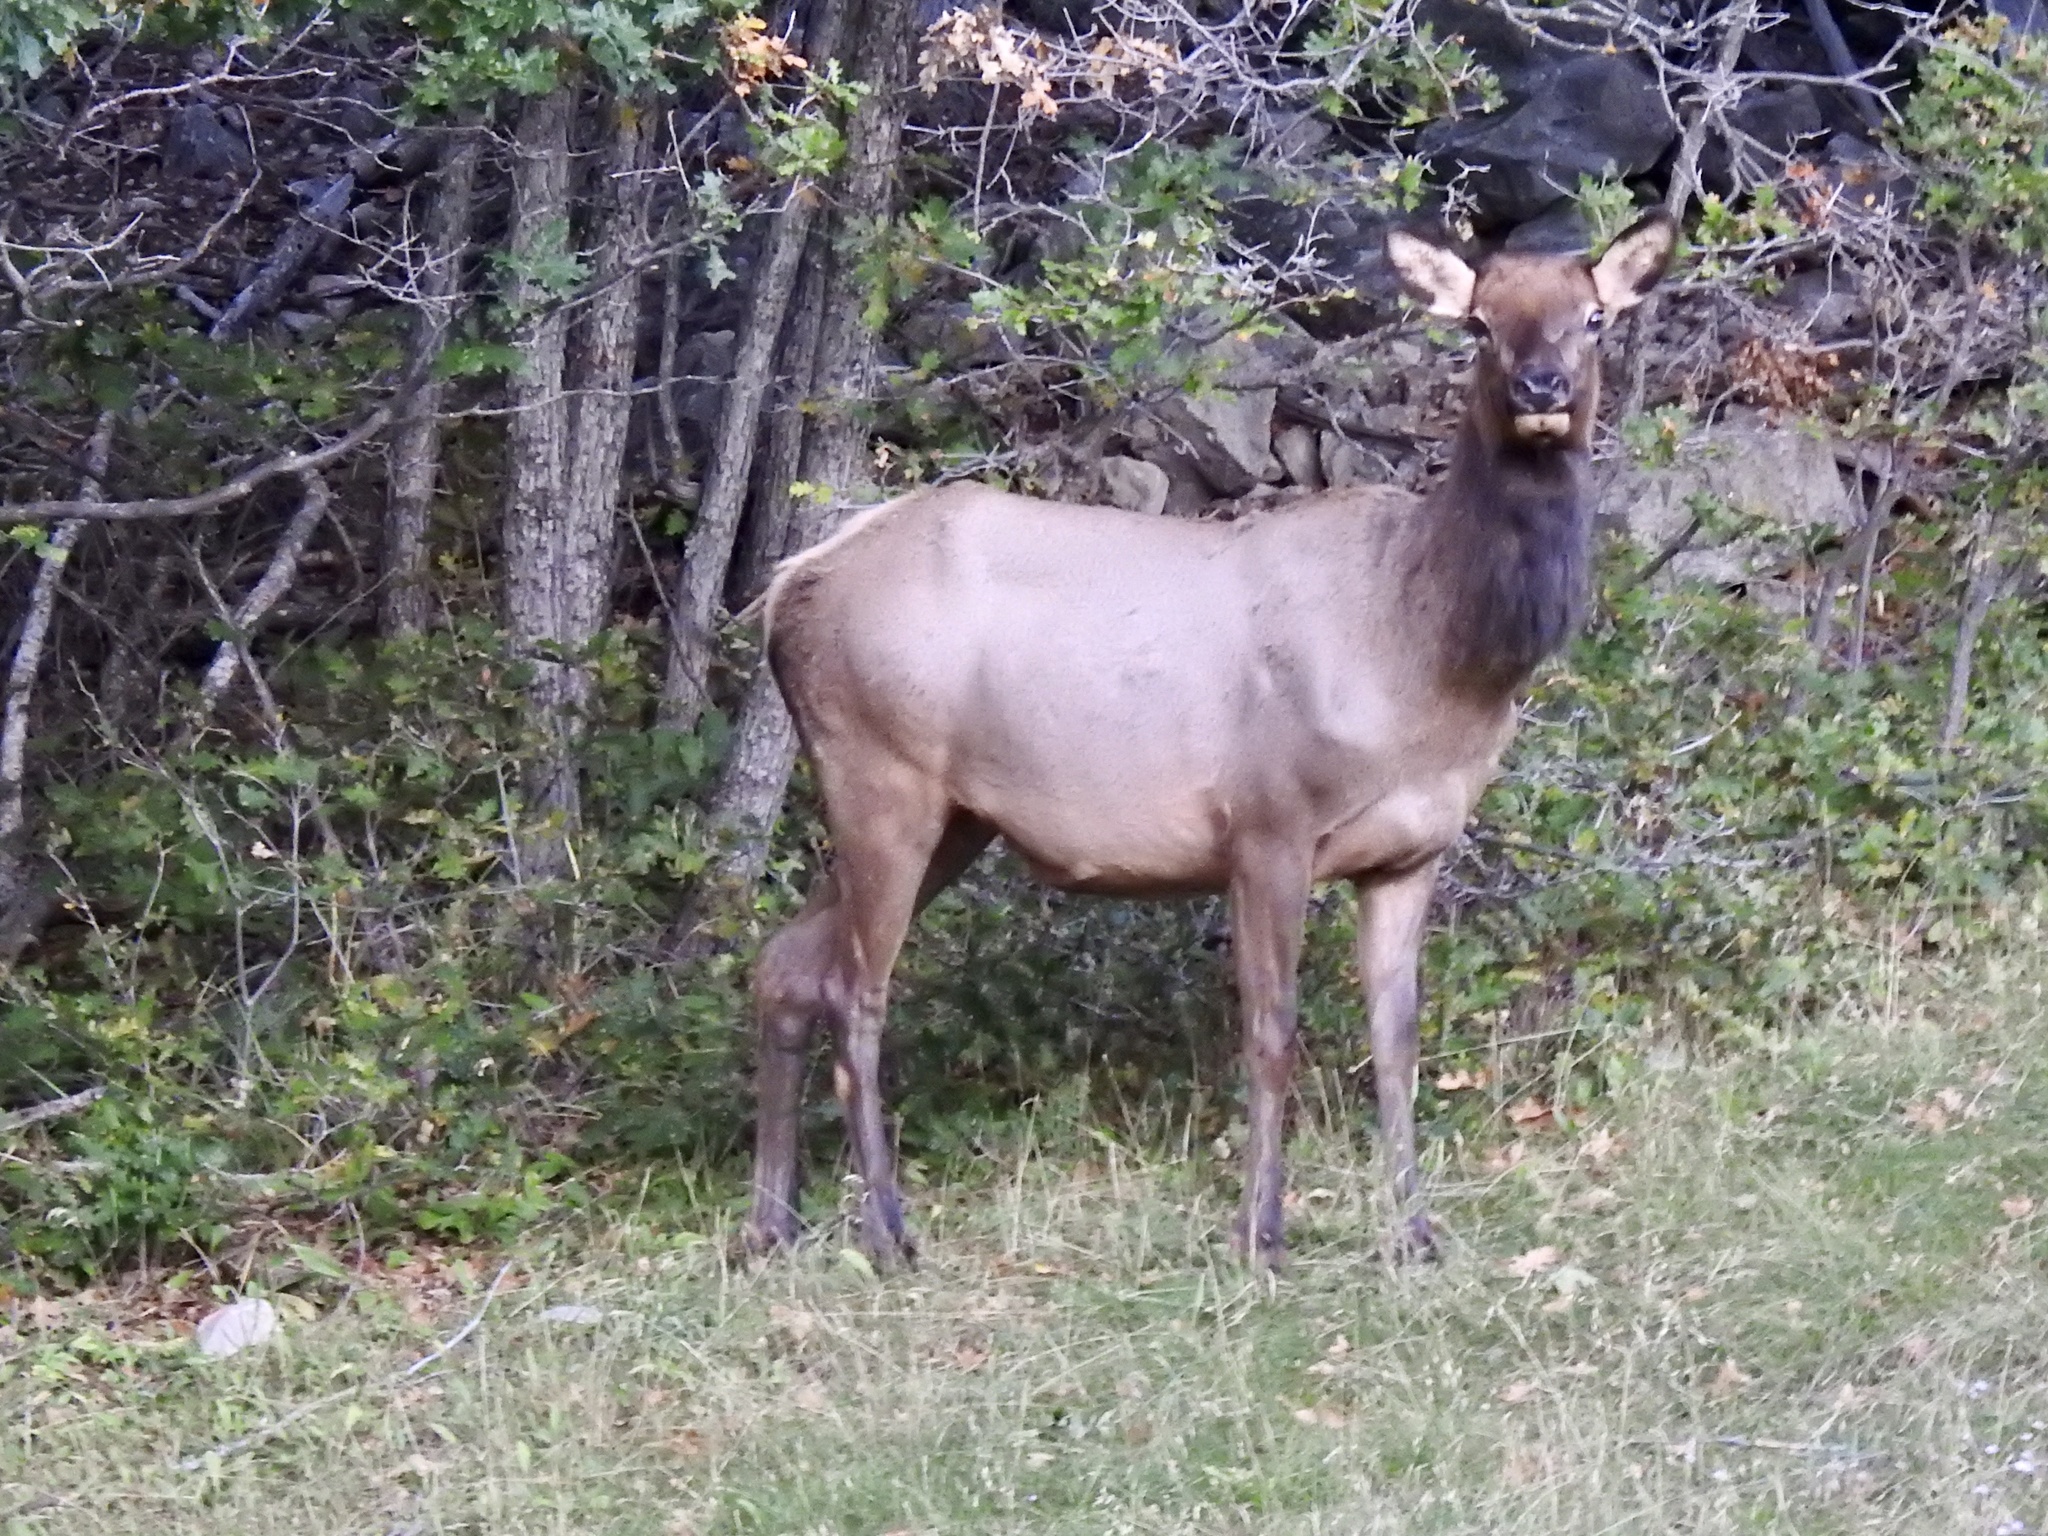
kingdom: Animalia
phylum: Chordata
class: Mammalia
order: Artiodactyla
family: Cervidae
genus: Cervus
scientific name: Cervus elaphus
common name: Red deer
